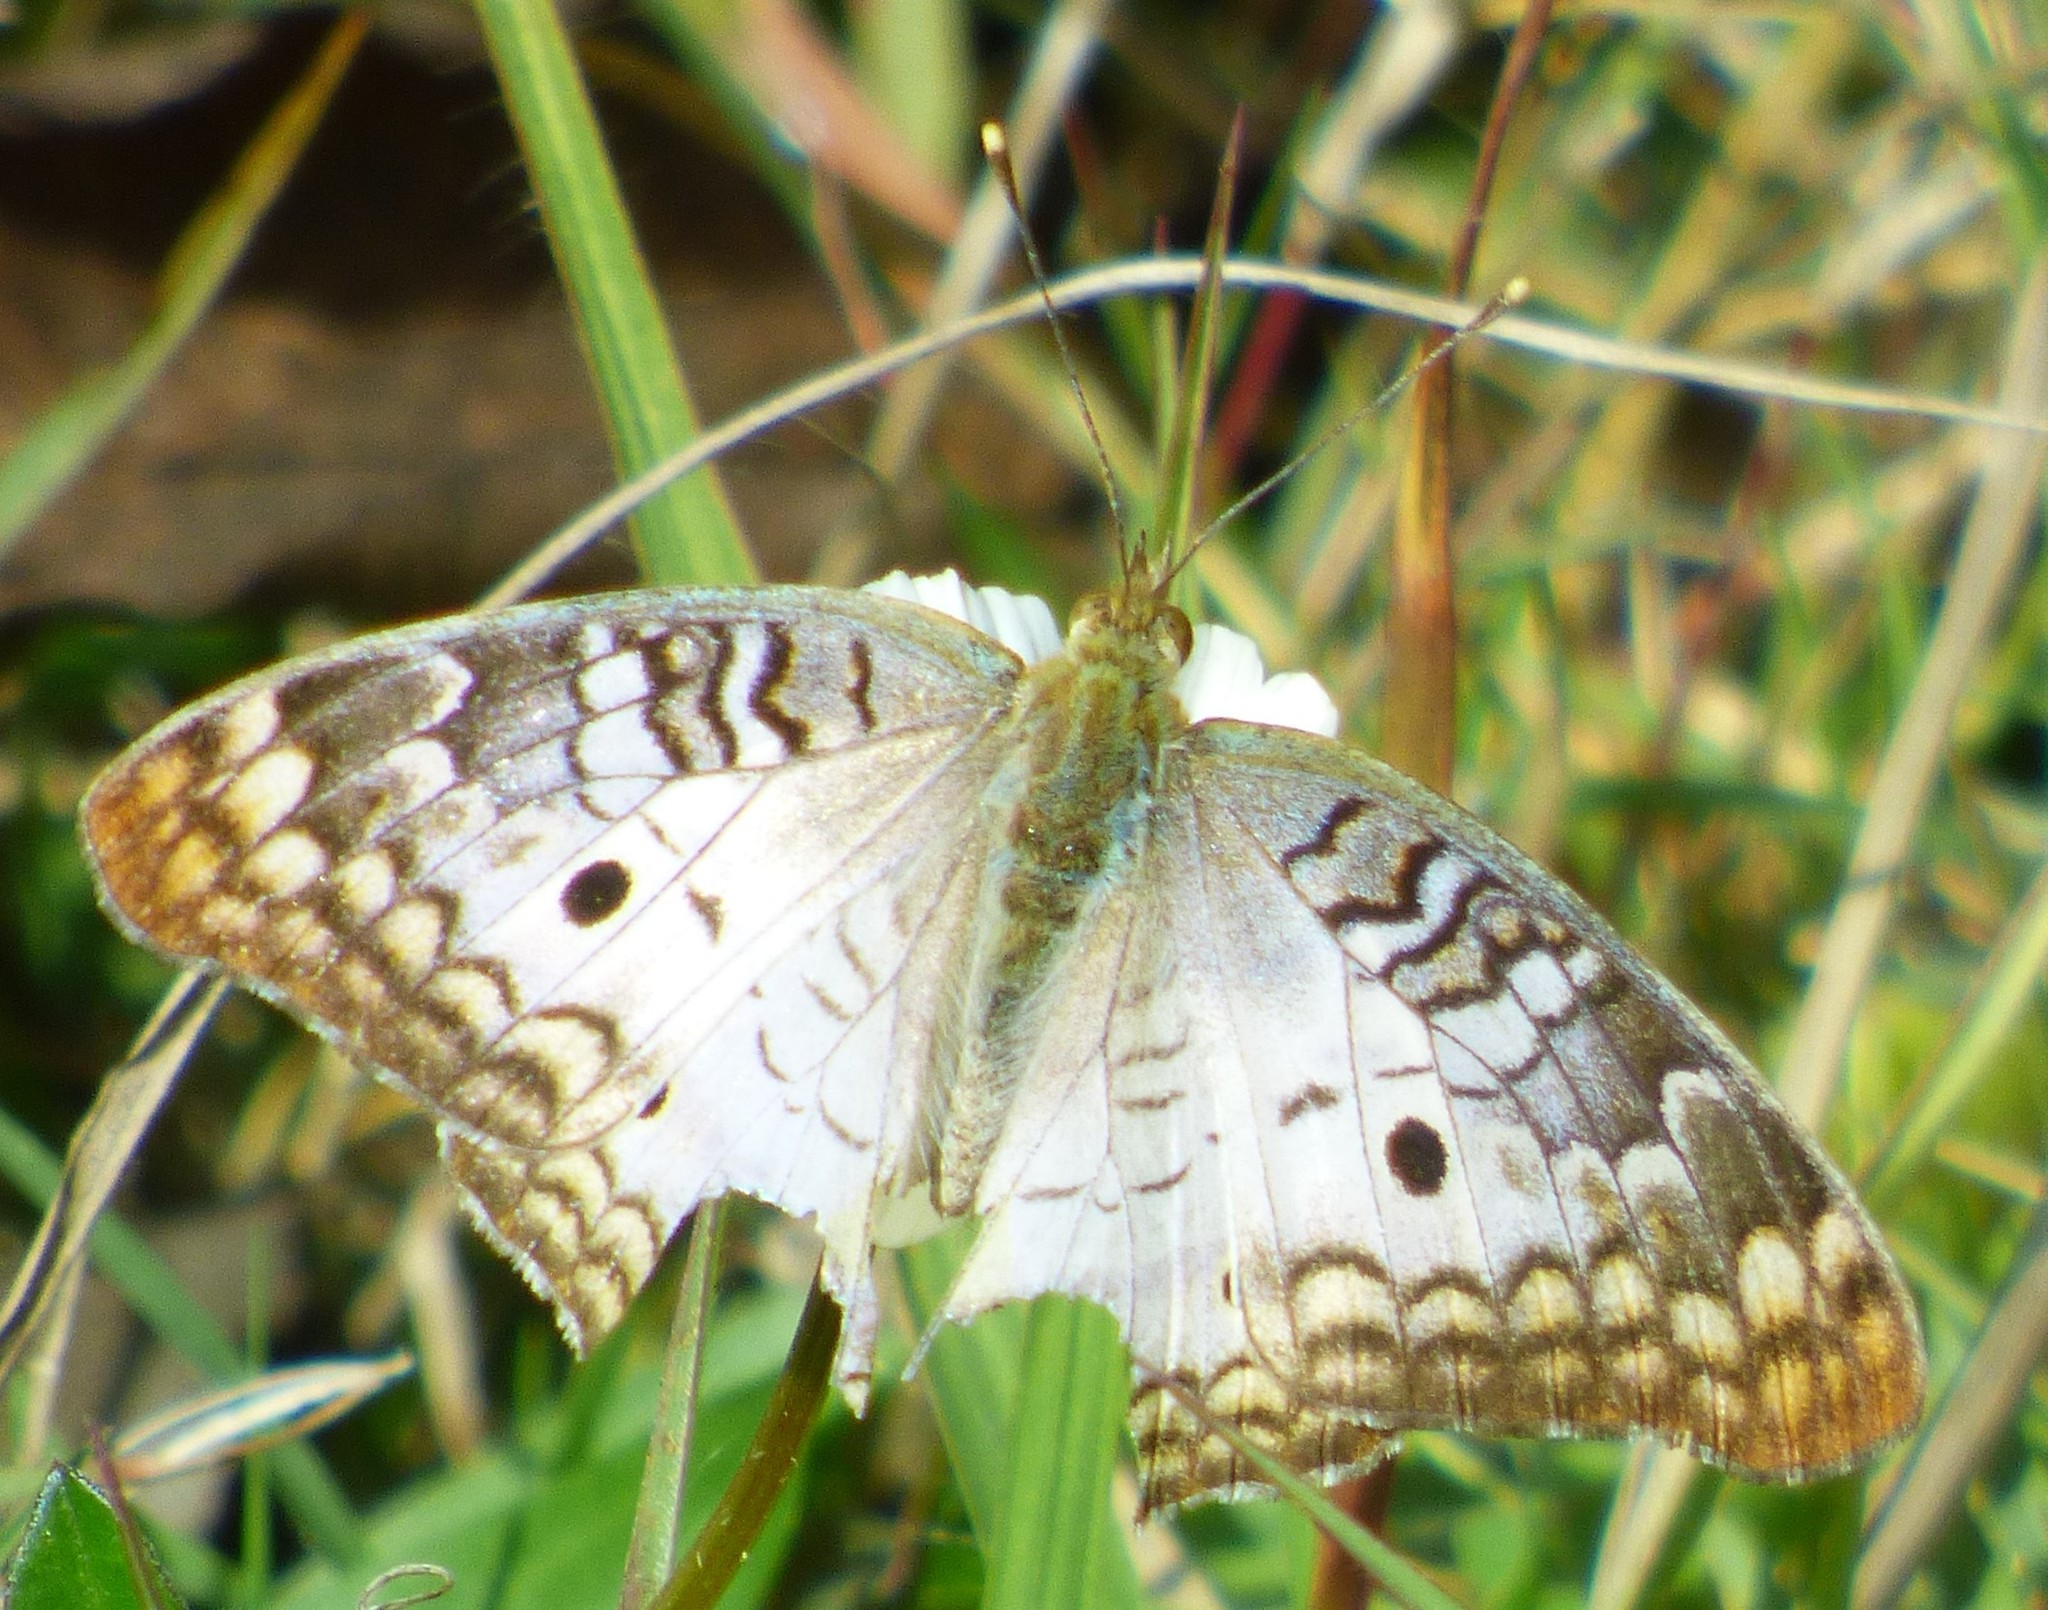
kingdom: Animalia
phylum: Arthropoda
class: Insecta
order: Lepidoptera
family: Nymphalidae
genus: Anartia
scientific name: Anartia jatrophae
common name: White peacock
